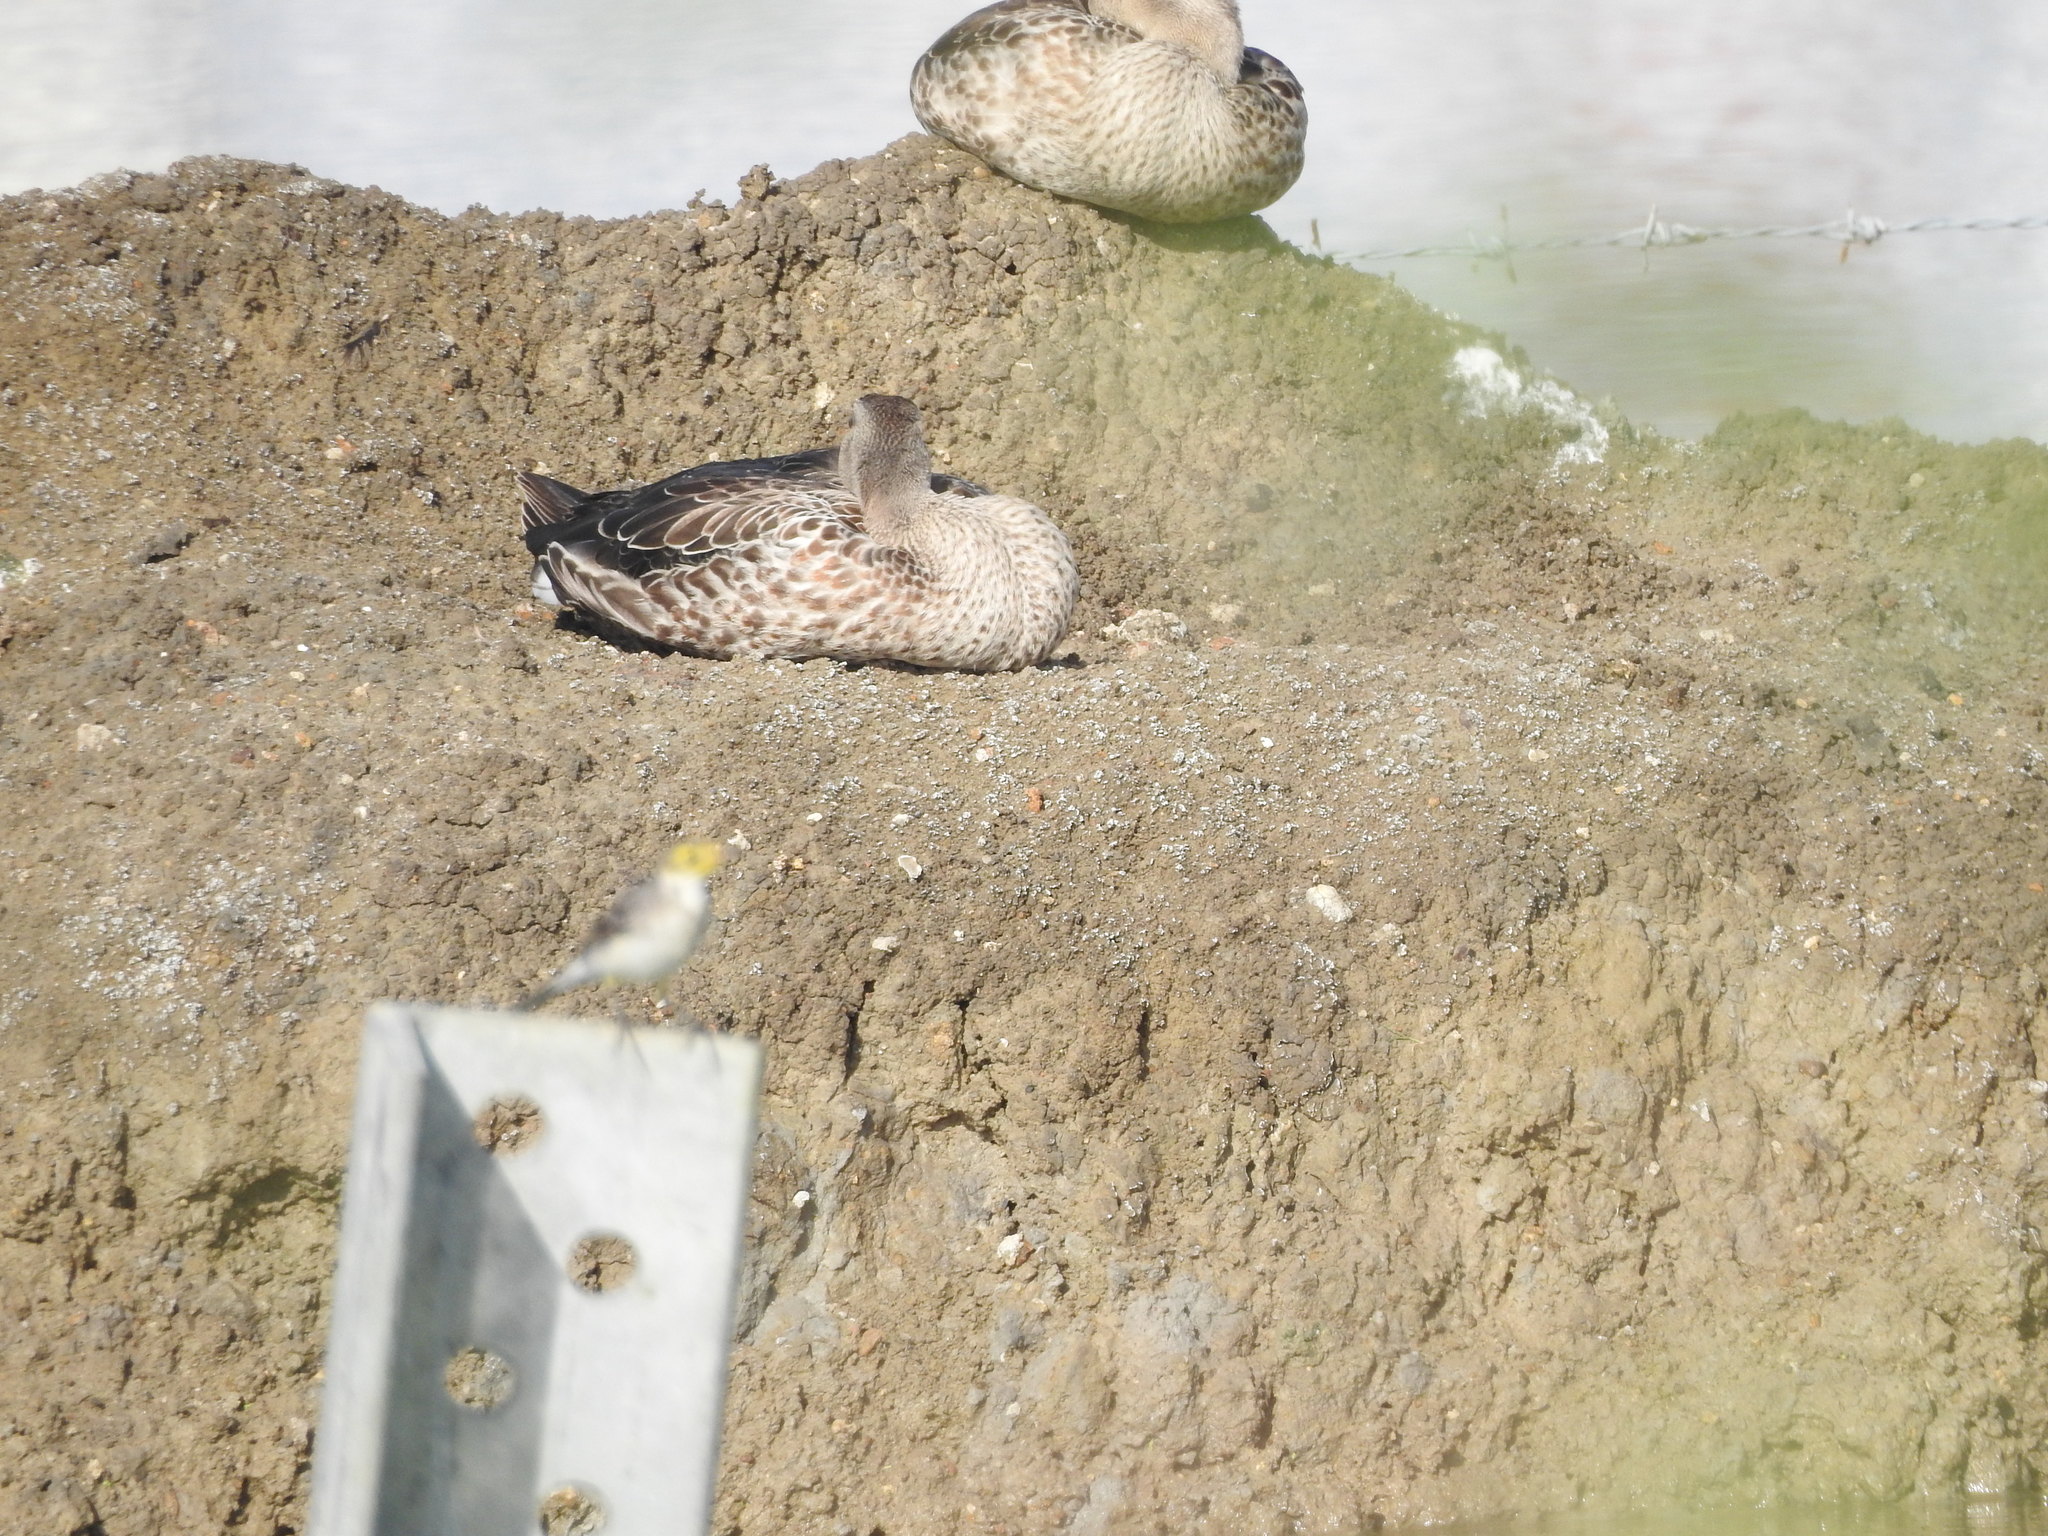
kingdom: Animalia
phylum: Chordata
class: Aves
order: Anseriformes
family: Anatidae
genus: Anas
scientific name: Anas poecilorhyncha
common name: Indian spot-billed duck
